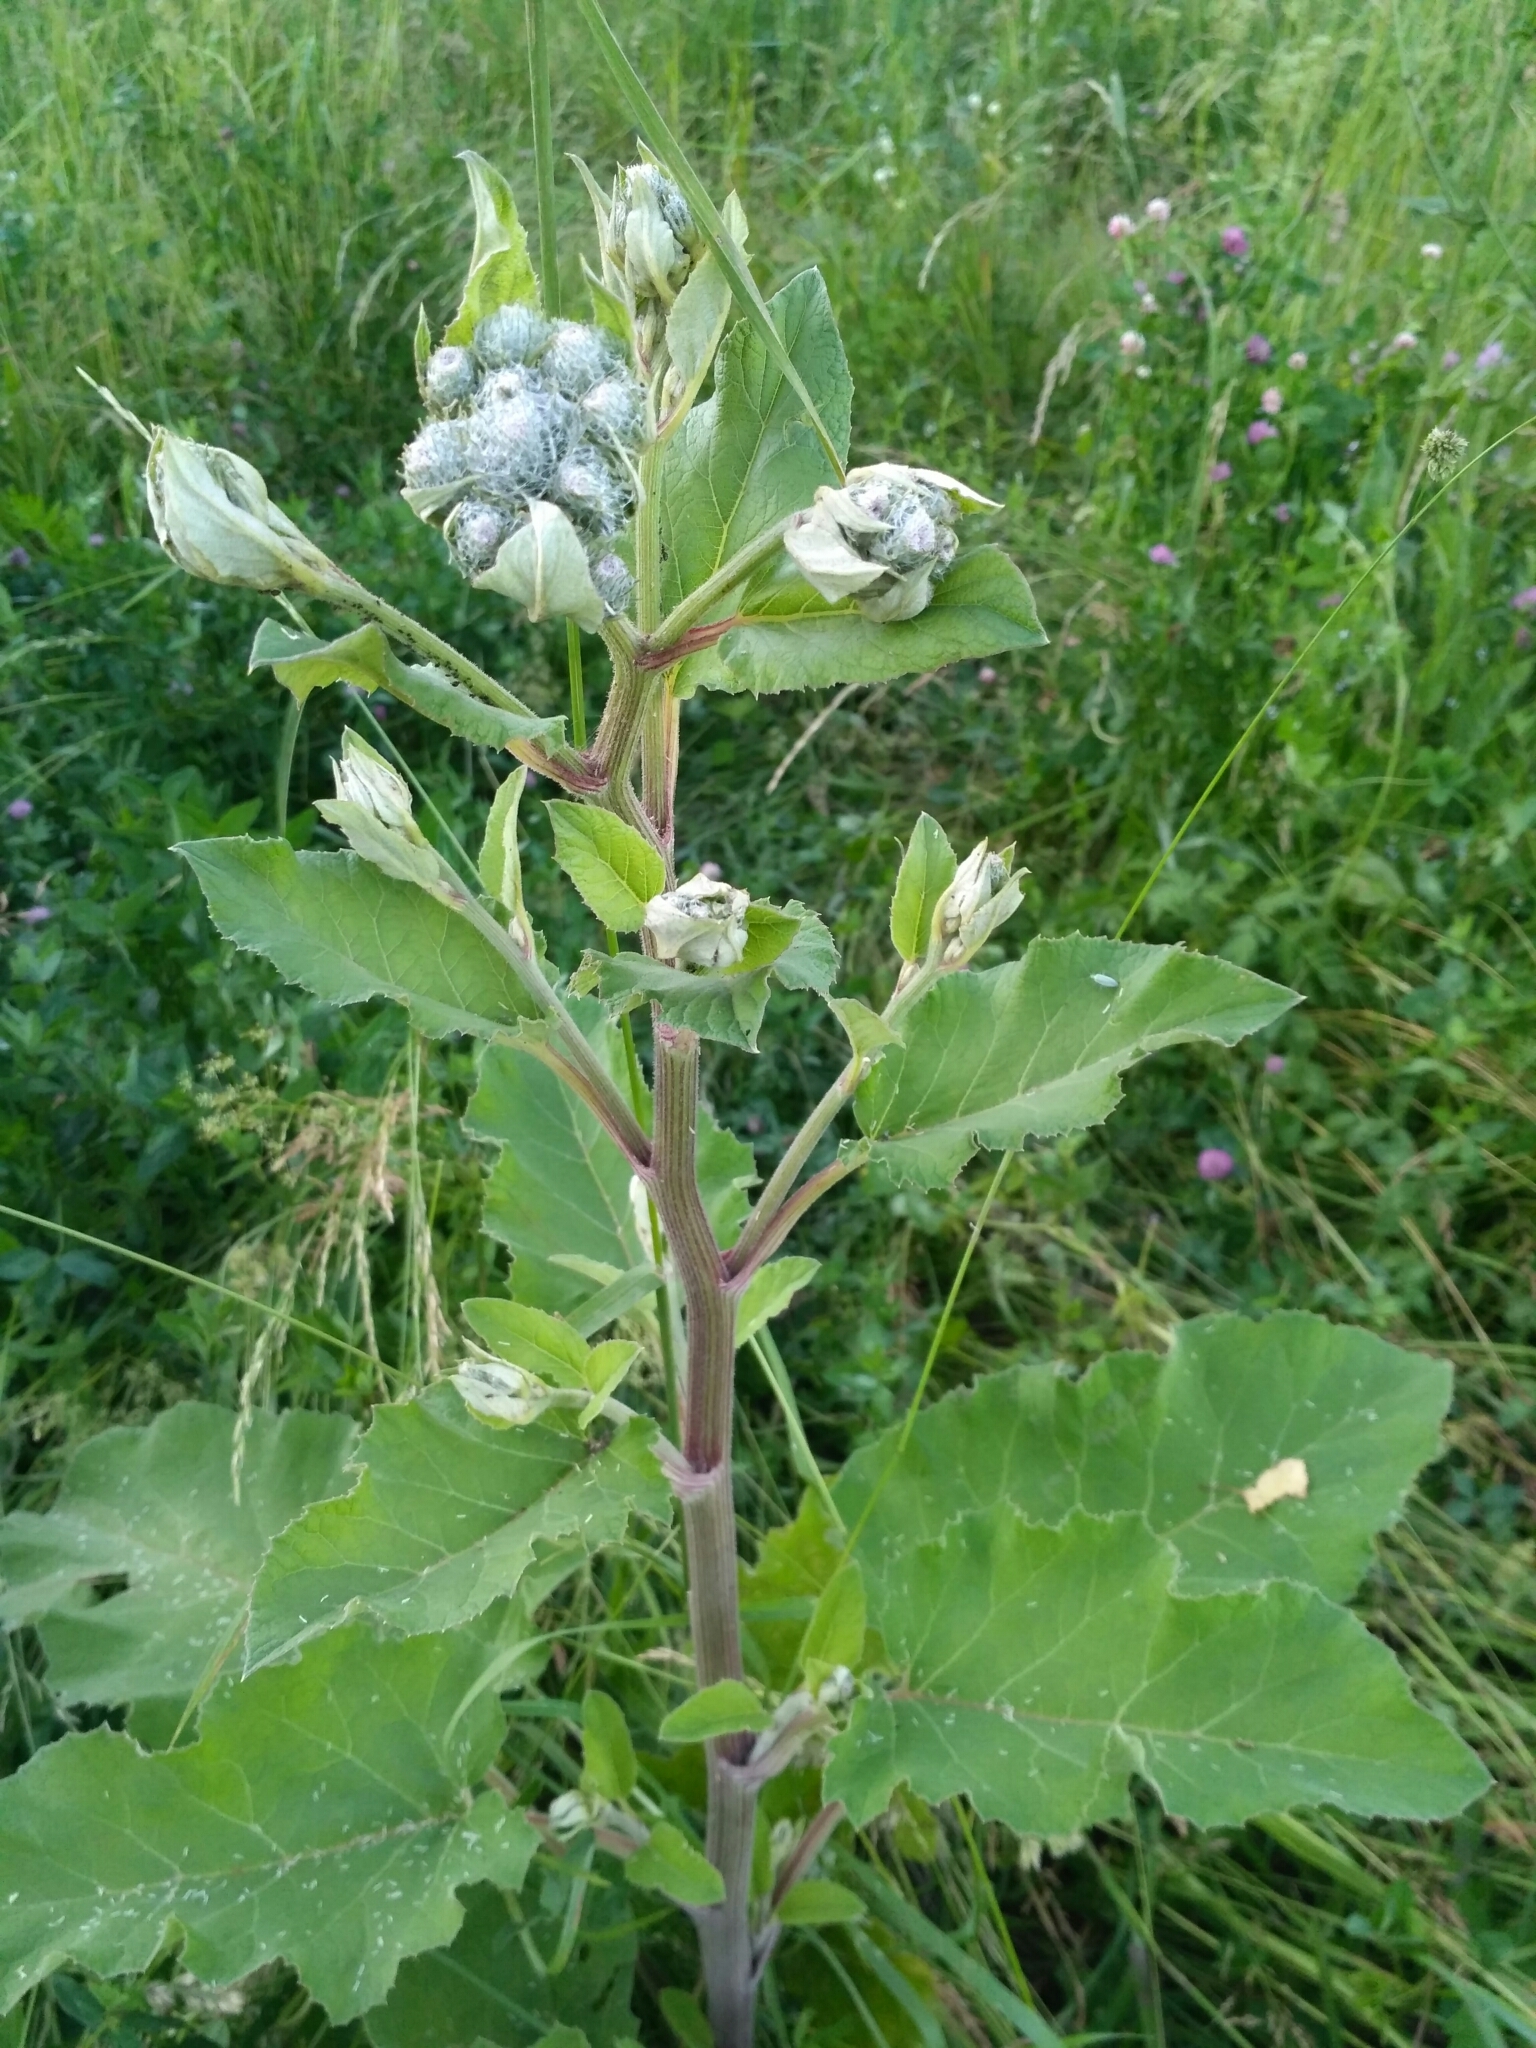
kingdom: Plantae
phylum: Tracheophyta
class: Magnoliopsida
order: Asterales
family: Asteraceae
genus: Arctium
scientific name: Arctium tomentosum
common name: Woolly burdock
